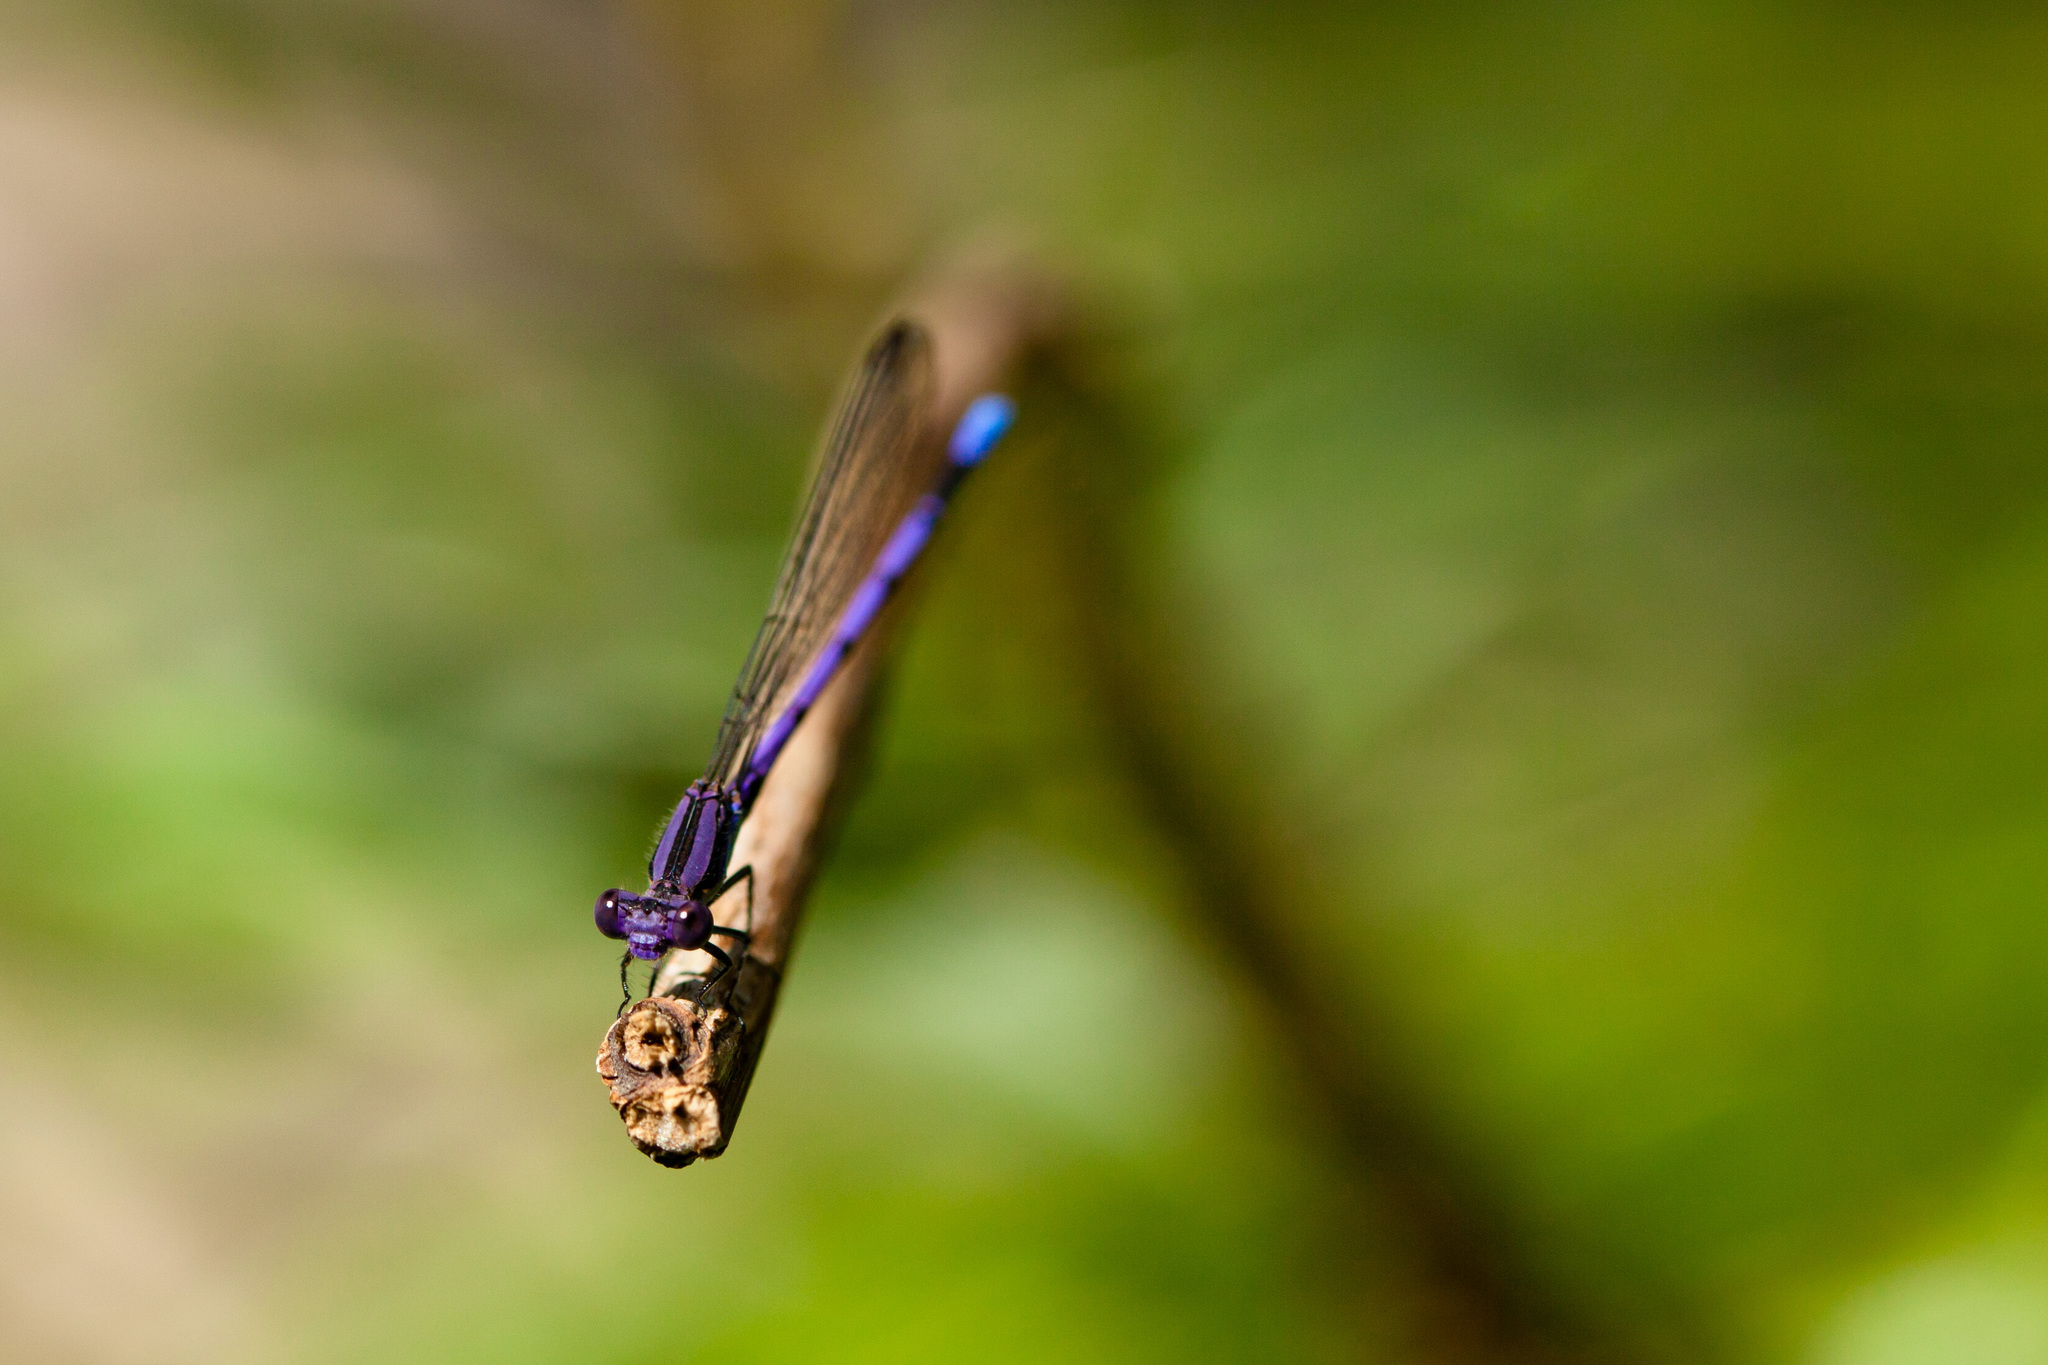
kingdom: Animalia
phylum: Arthropoda
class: Insecta
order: Odonata
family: Coenagrionidae
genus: Argia
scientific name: Argia fumipennis
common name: Variable dancer
